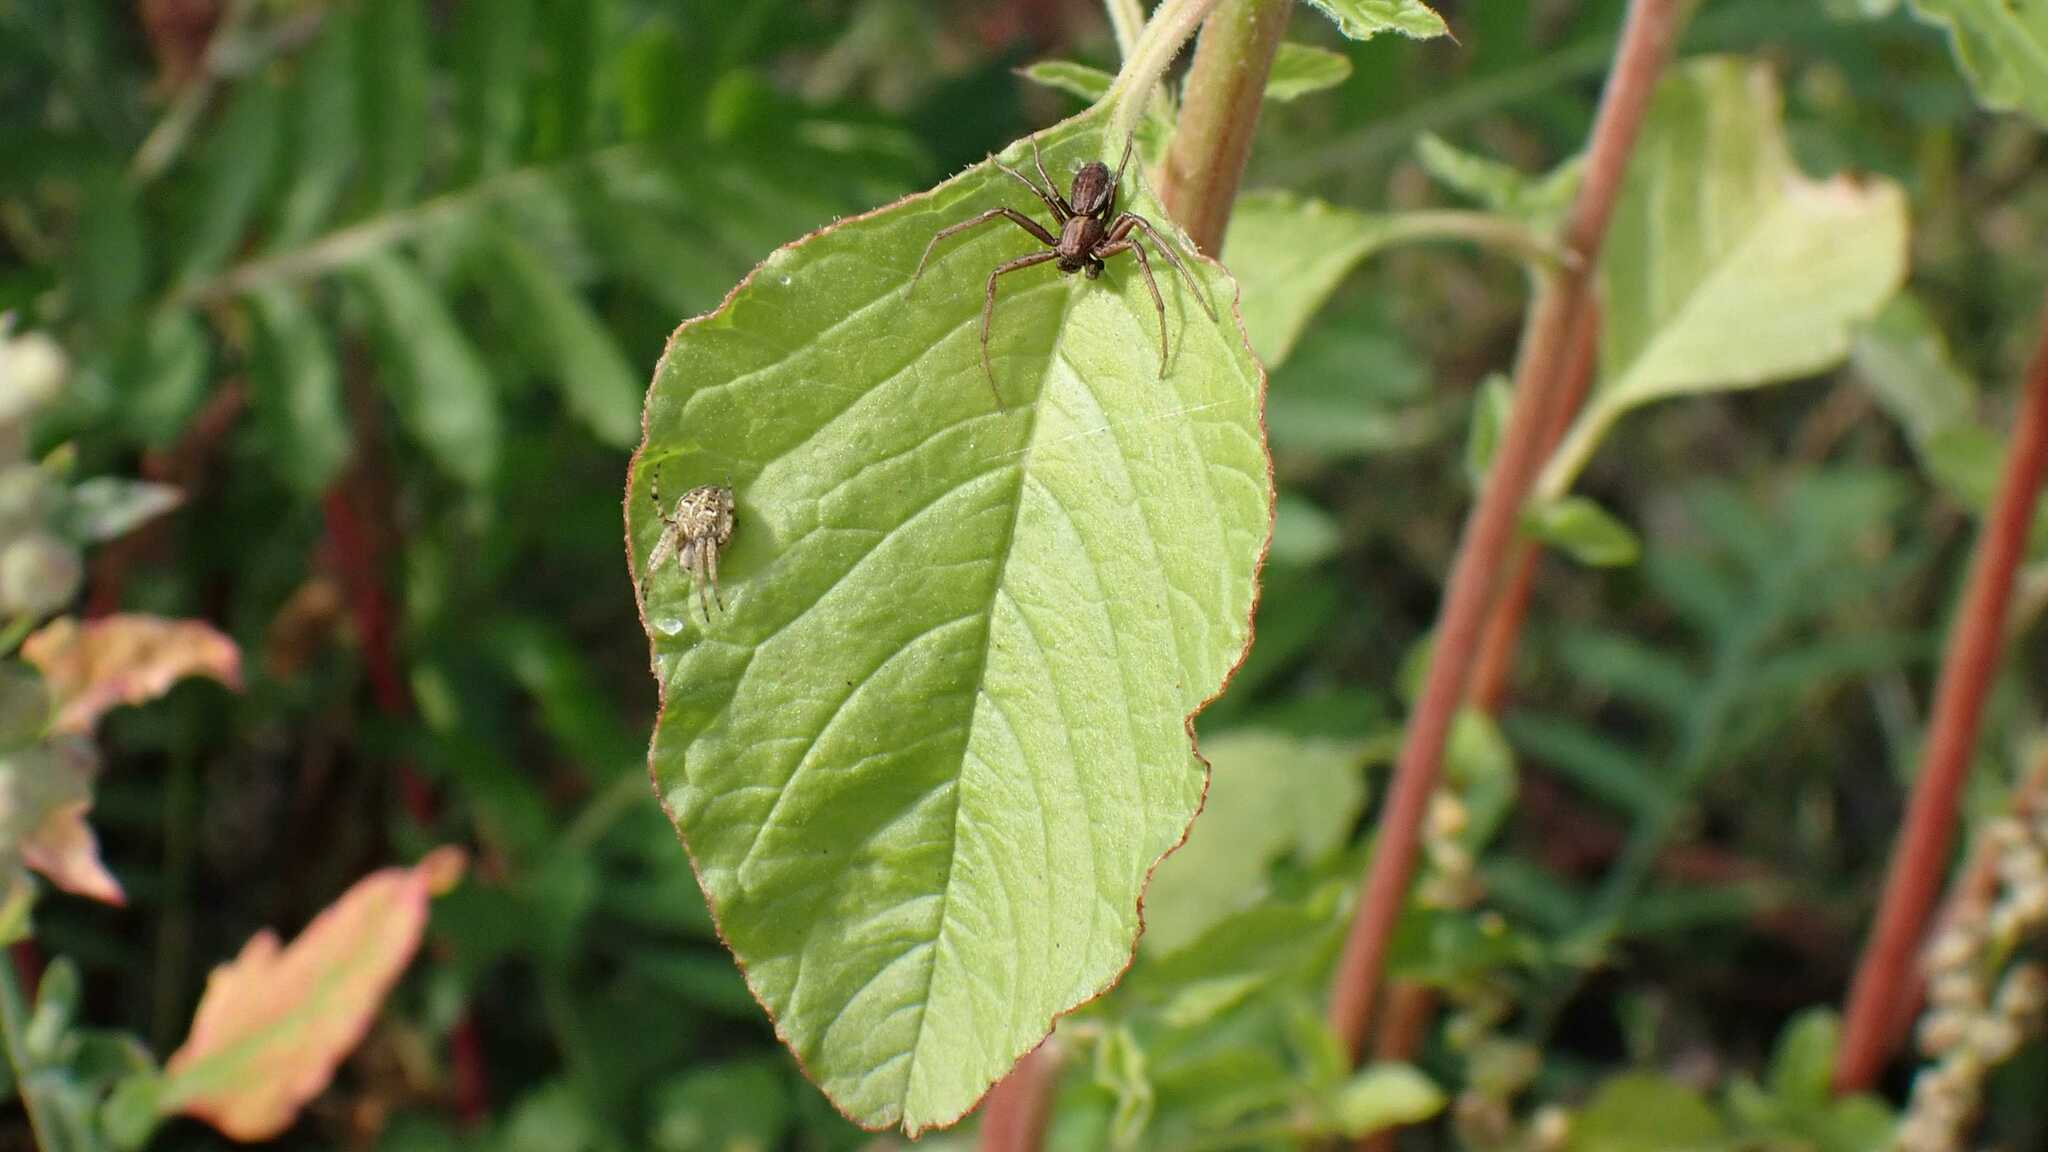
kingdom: Animalia
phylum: Arthropoda
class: Arachnida
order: Araneae
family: Thomisidae
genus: Spiracme
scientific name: Spiracme striatipes
